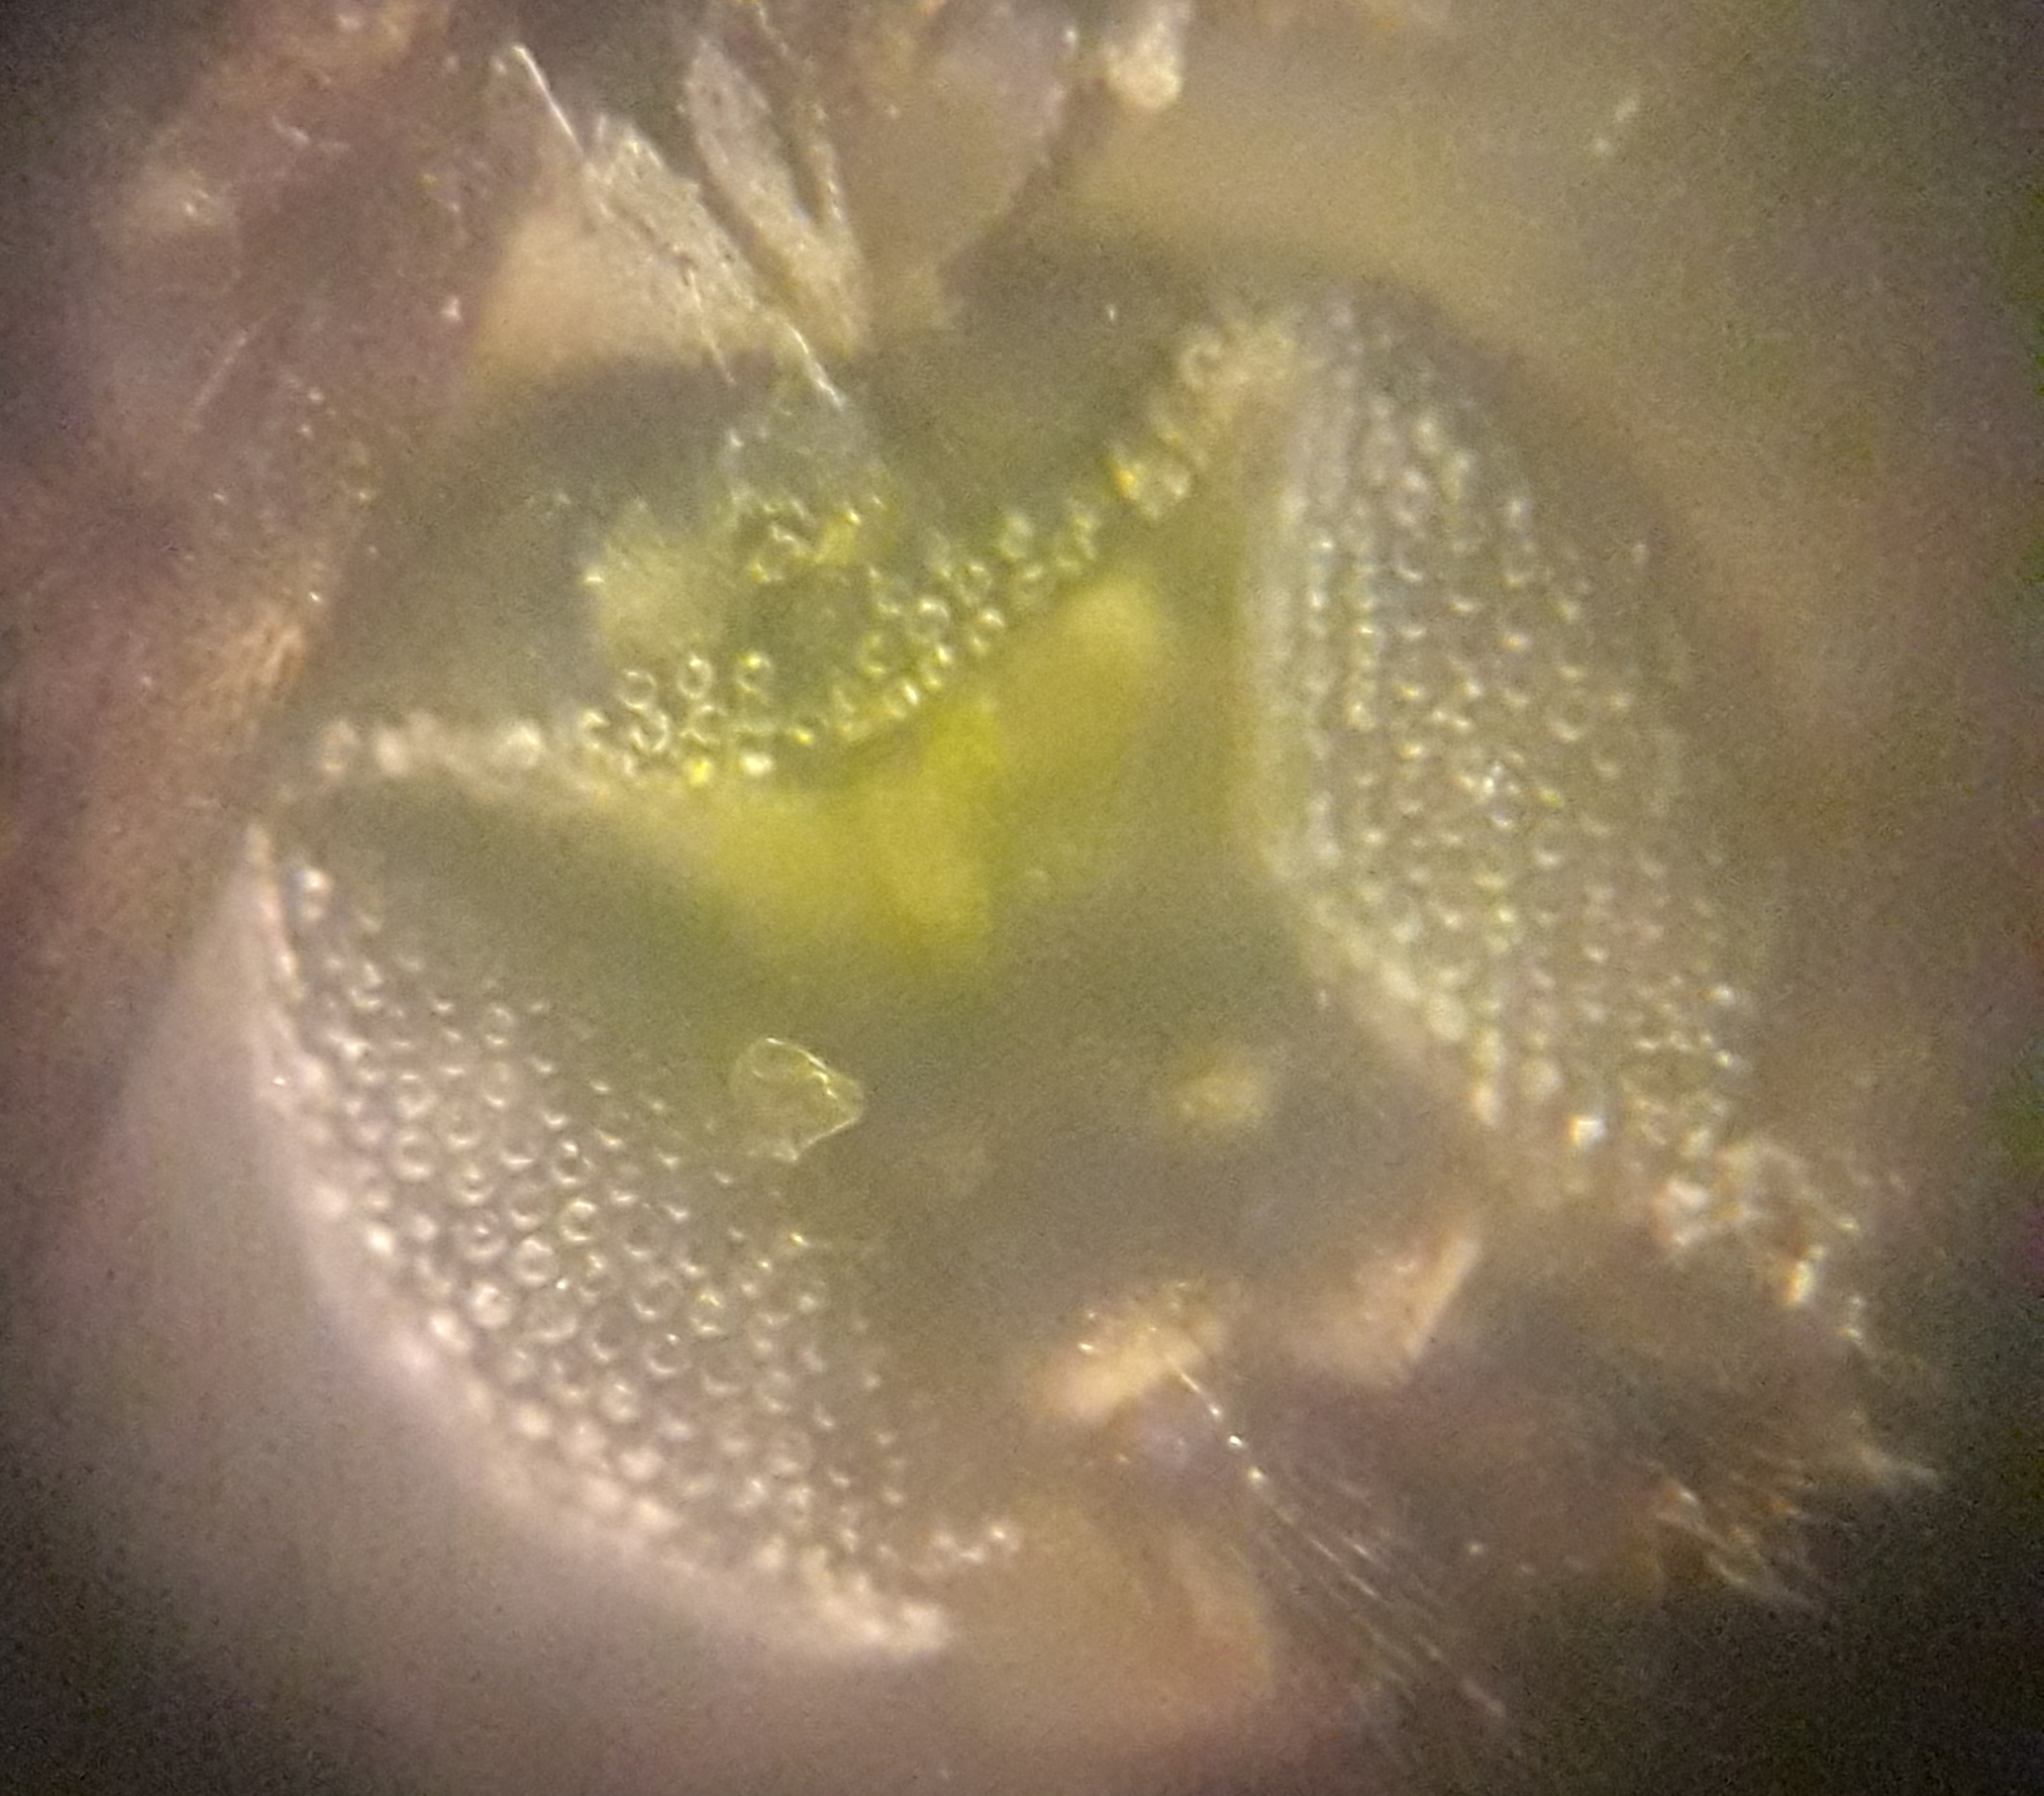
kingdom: Animalia
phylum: Arthropoda
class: Insecta
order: Diptera
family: Sciaridae
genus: Bradysia
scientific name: Bradysia tilicola
